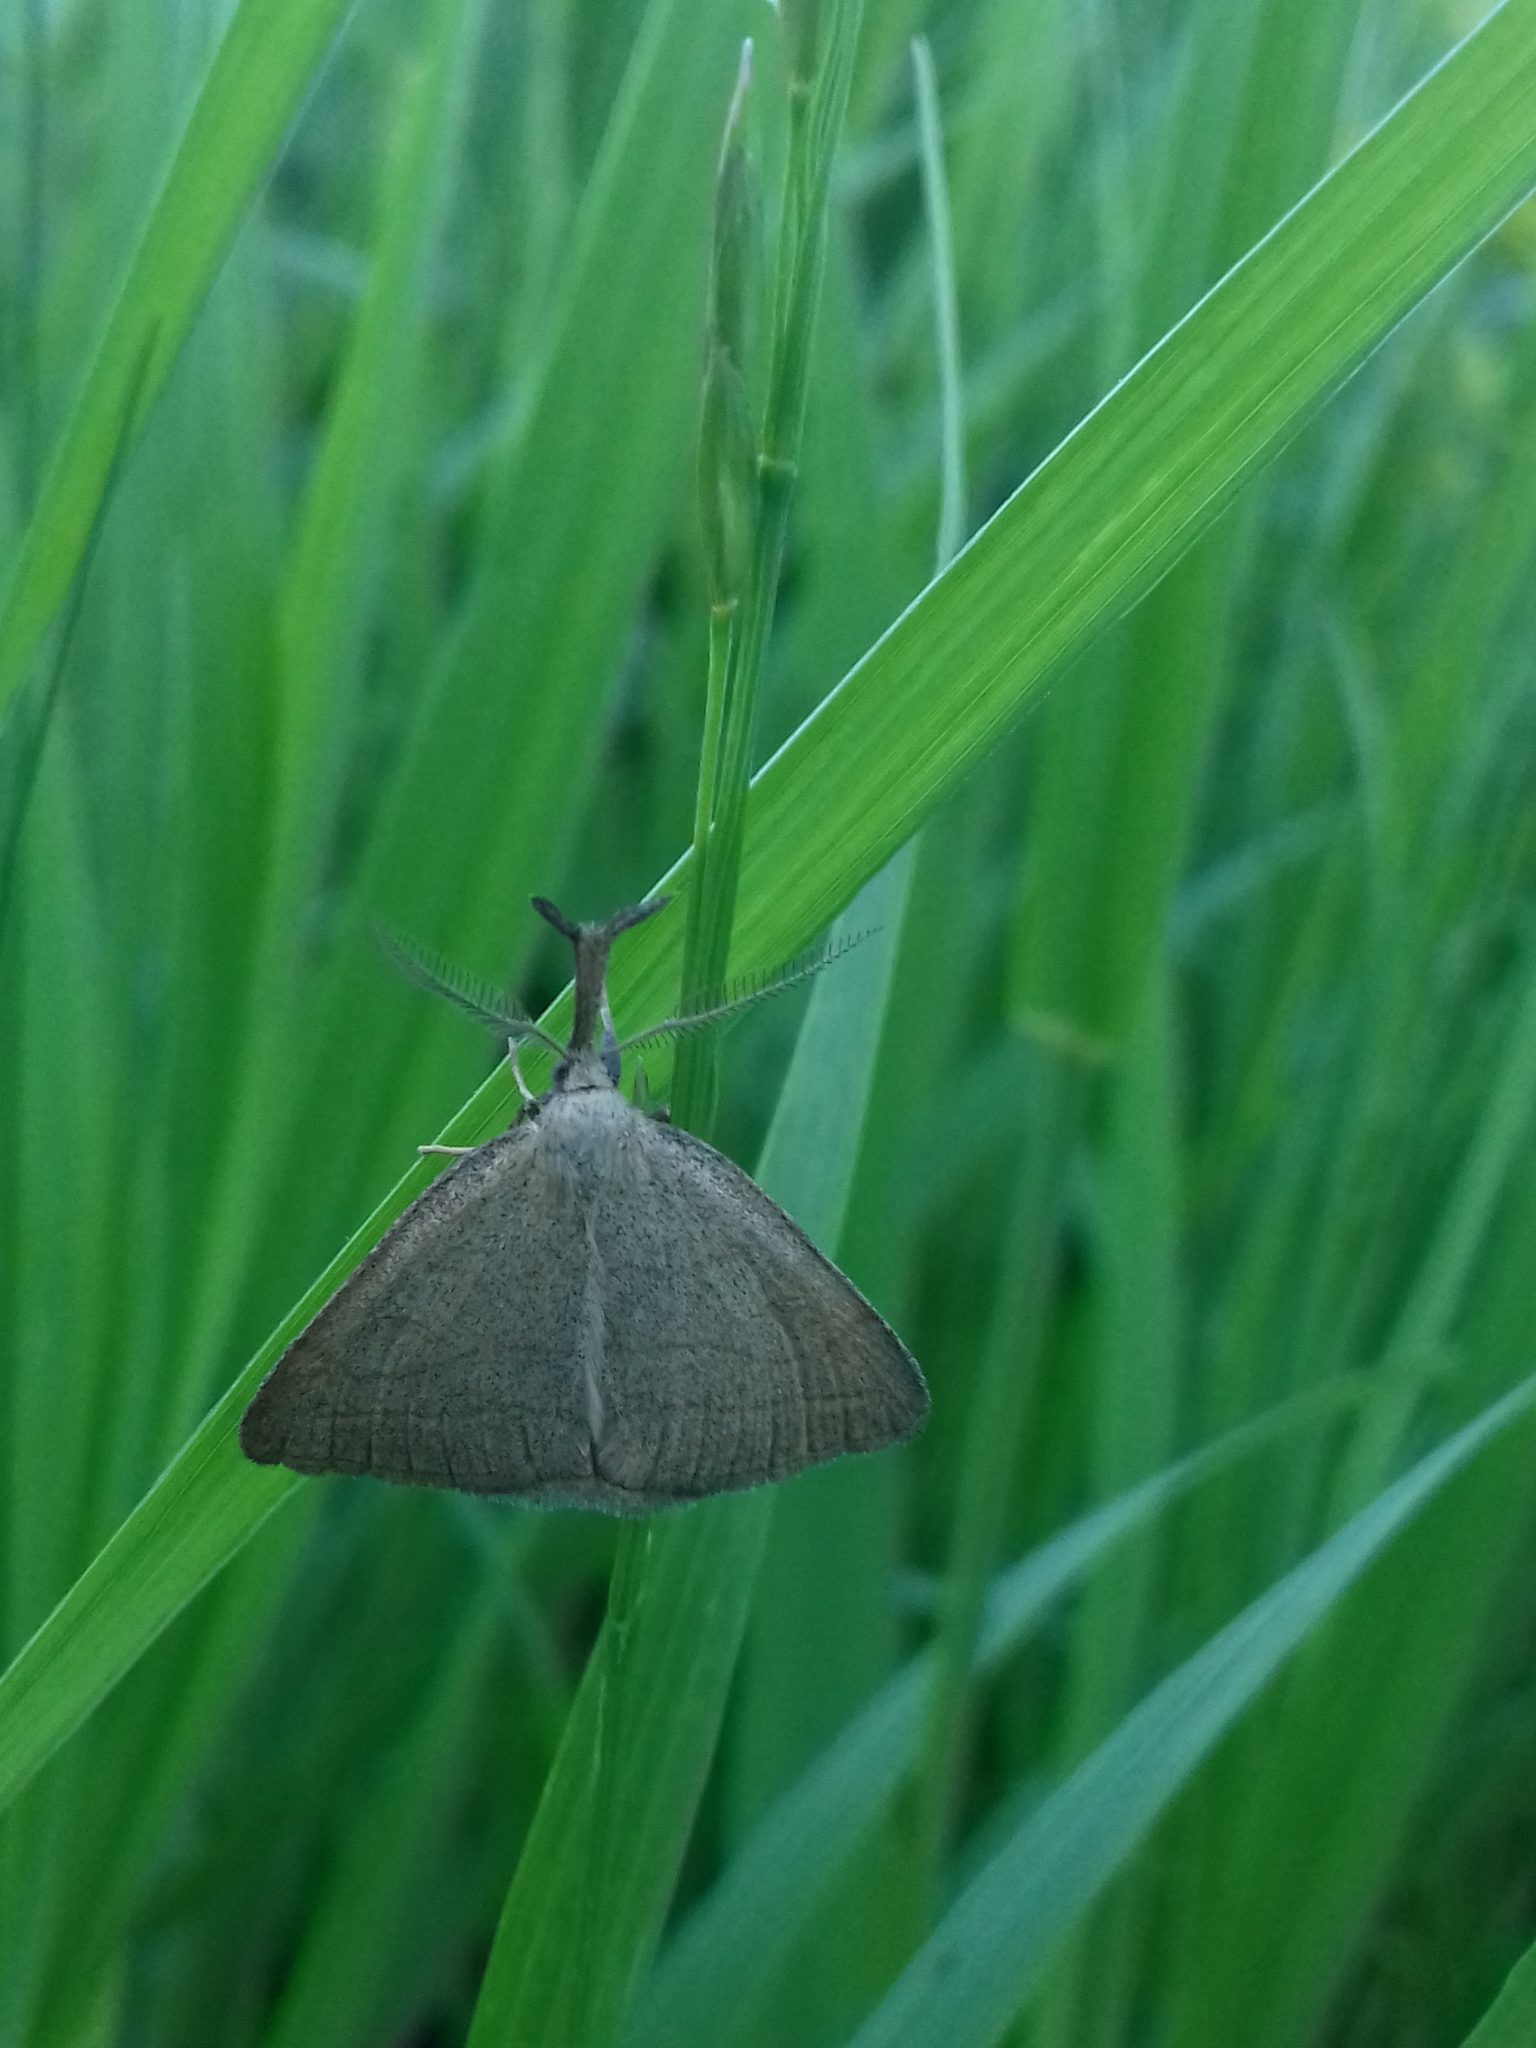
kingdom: Animalia
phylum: Arthropoda
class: Insecta
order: Lepidoptera
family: Erebidae
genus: Polypogon
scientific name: Polypogon tentacularia
